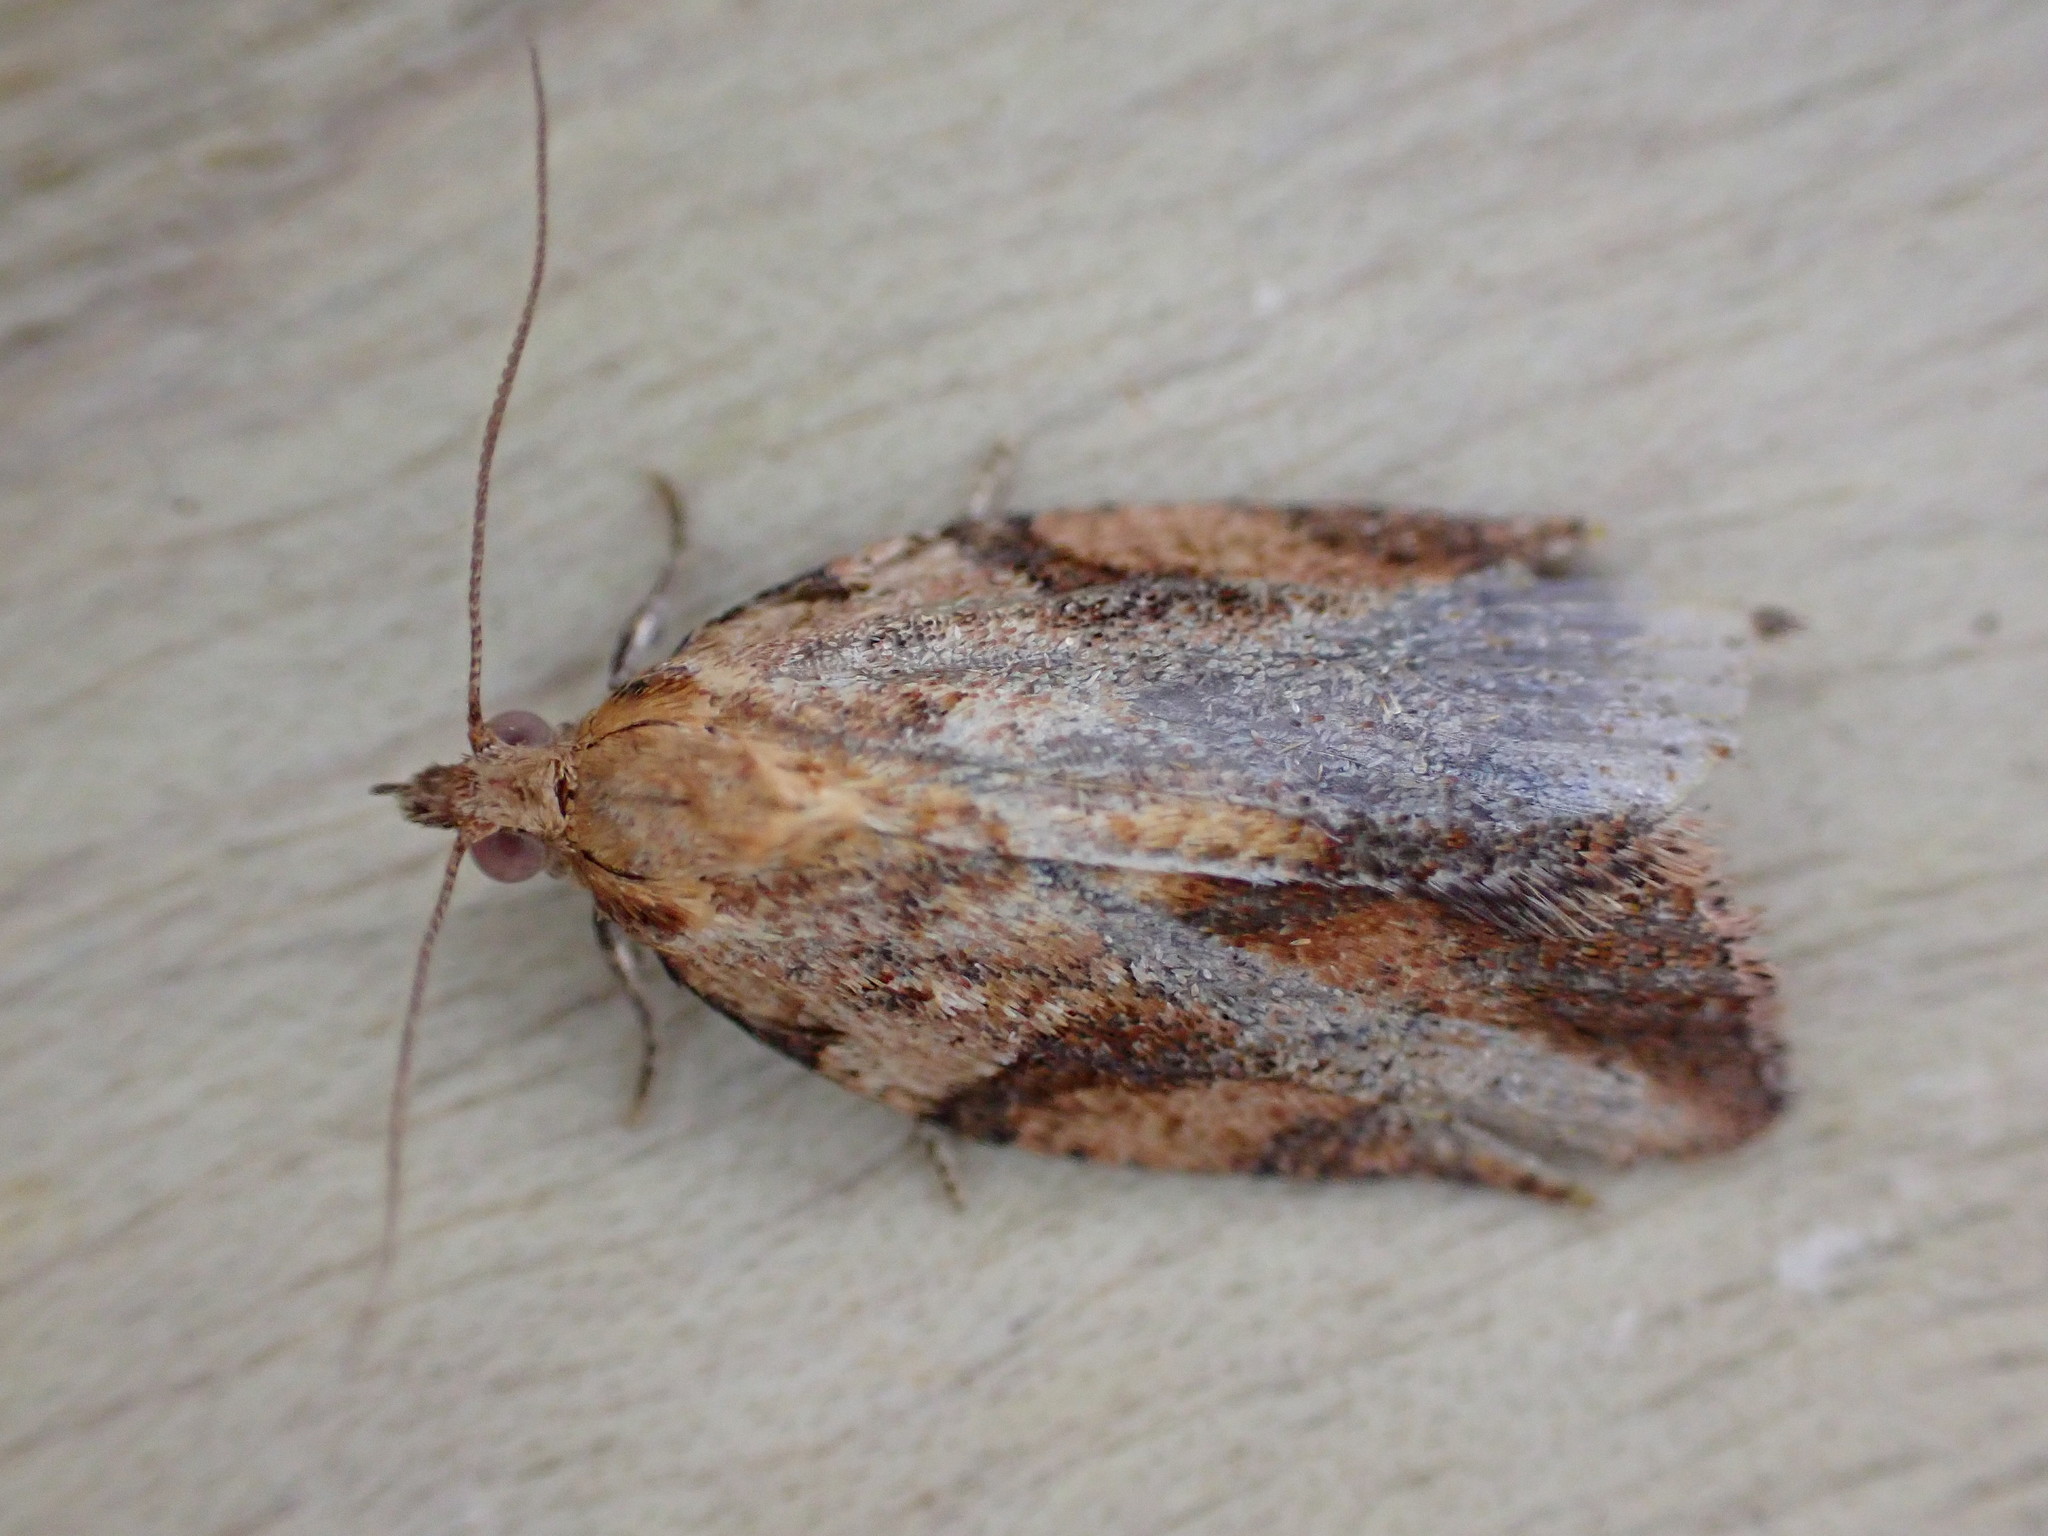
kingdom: Animalia
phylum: Arthropoda
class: Insecta
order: Lepidoptera
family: Tortricidae
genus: Epiphyas
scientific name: Epiphyas postvittana
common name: Light brown apple moth
